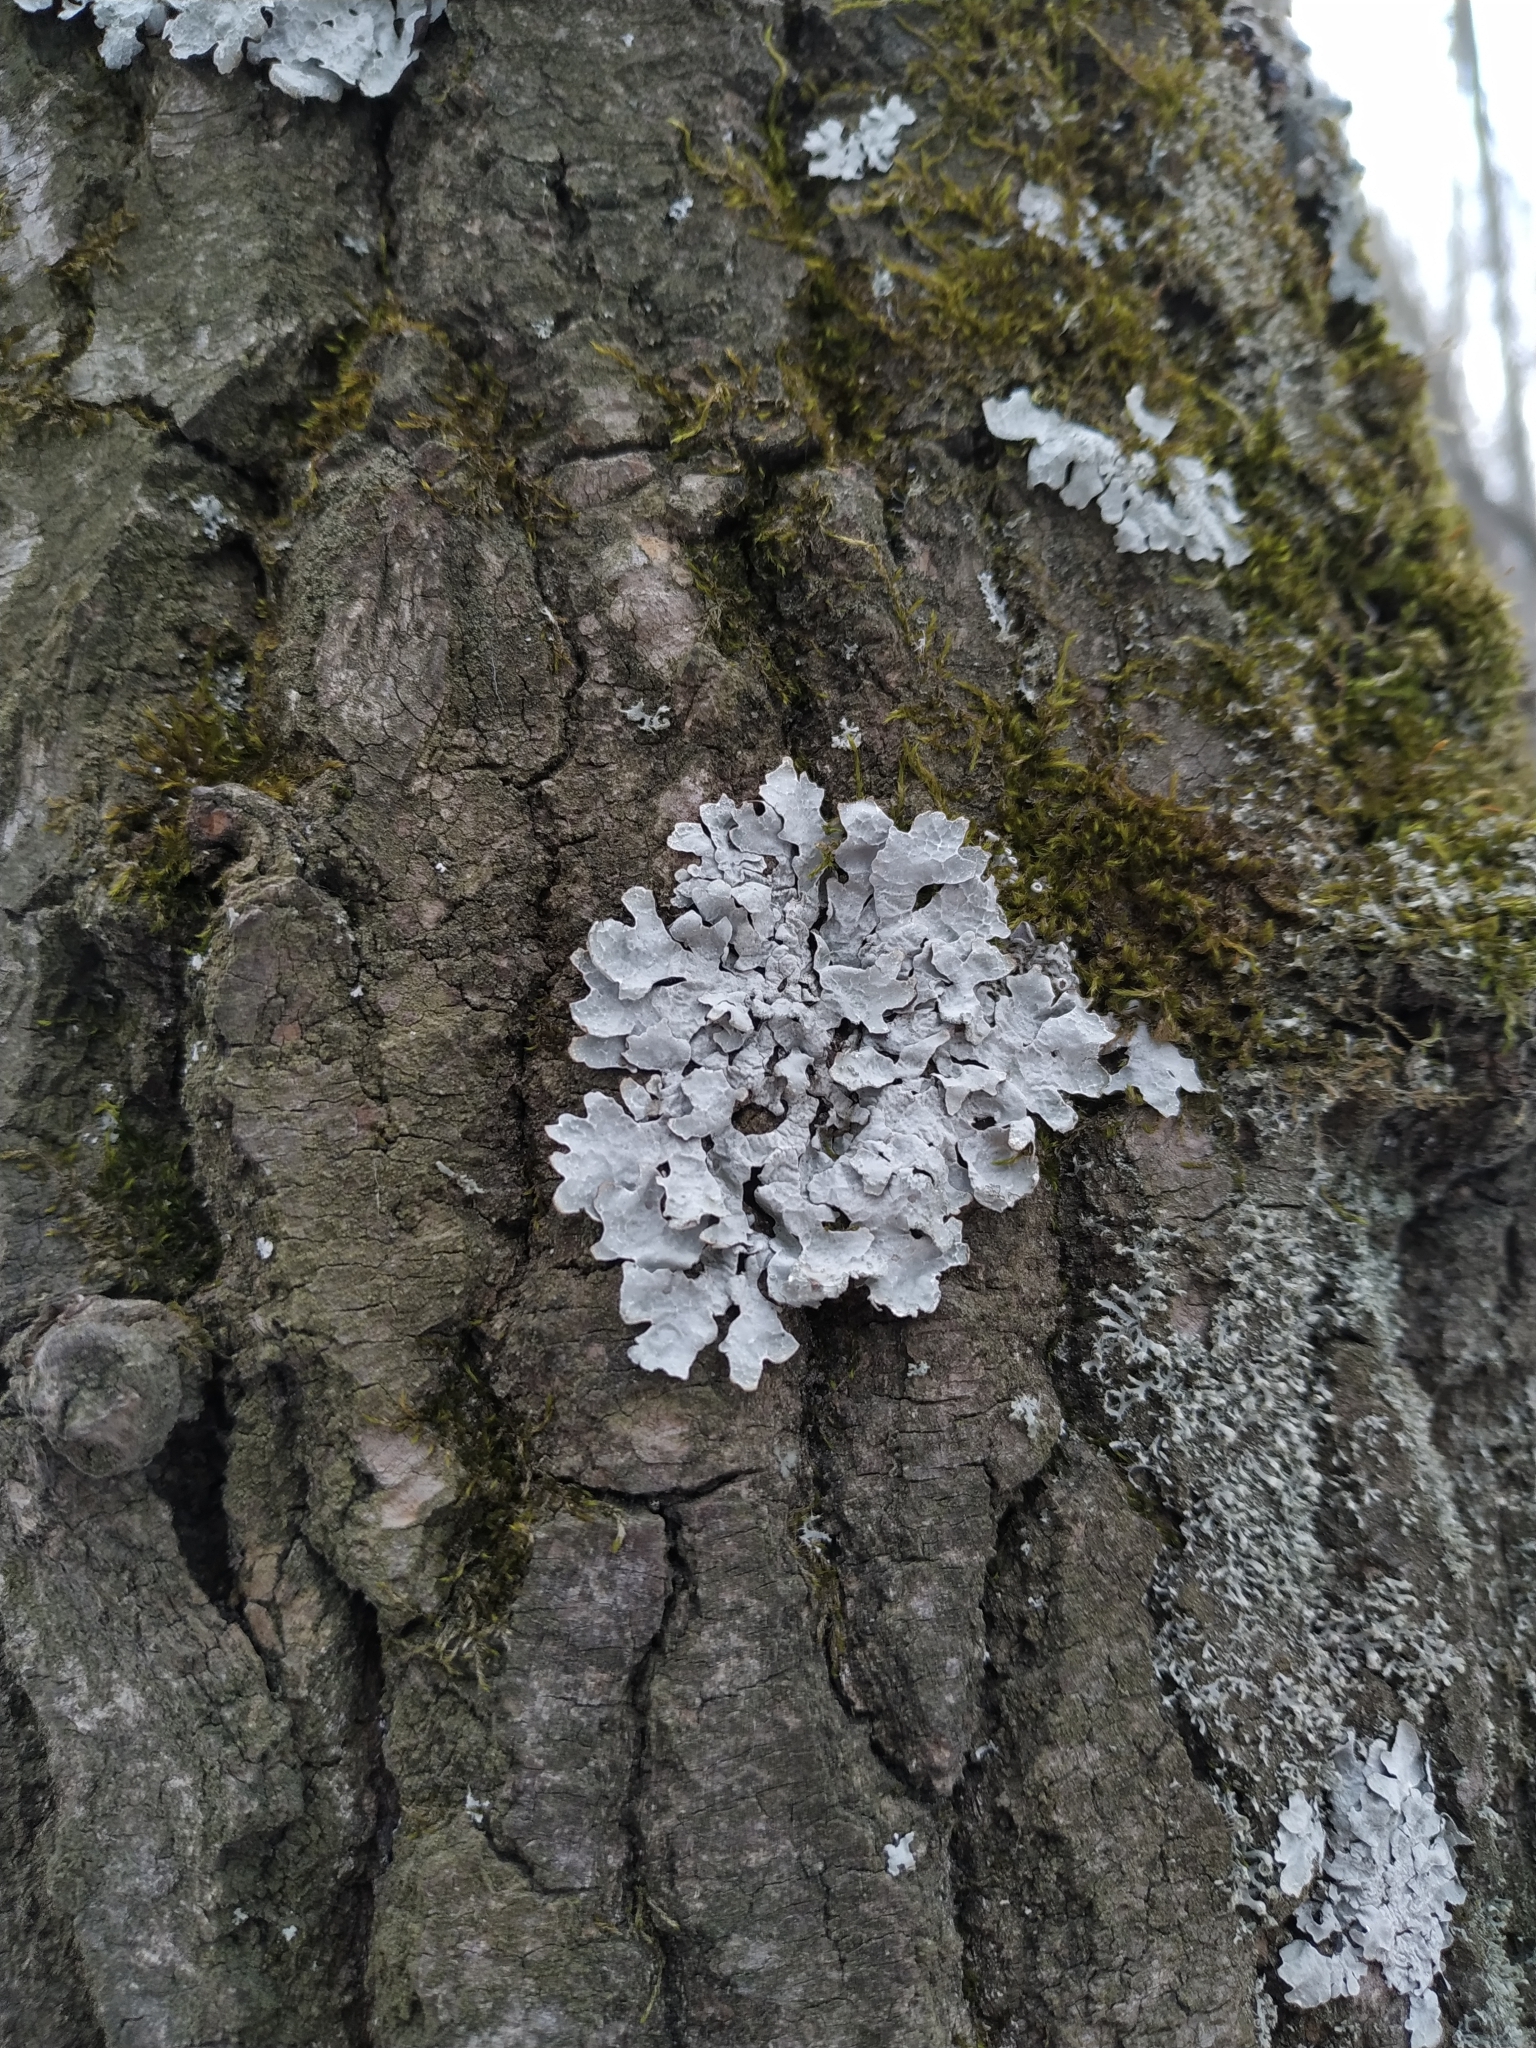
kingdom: Fungi
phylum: Ascomycota
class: Lecanoromycetes
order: Lecanorales
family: Parmeliaceae
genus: Parmelia
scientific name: Parmelia sulcata
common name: Netted shield lichen
